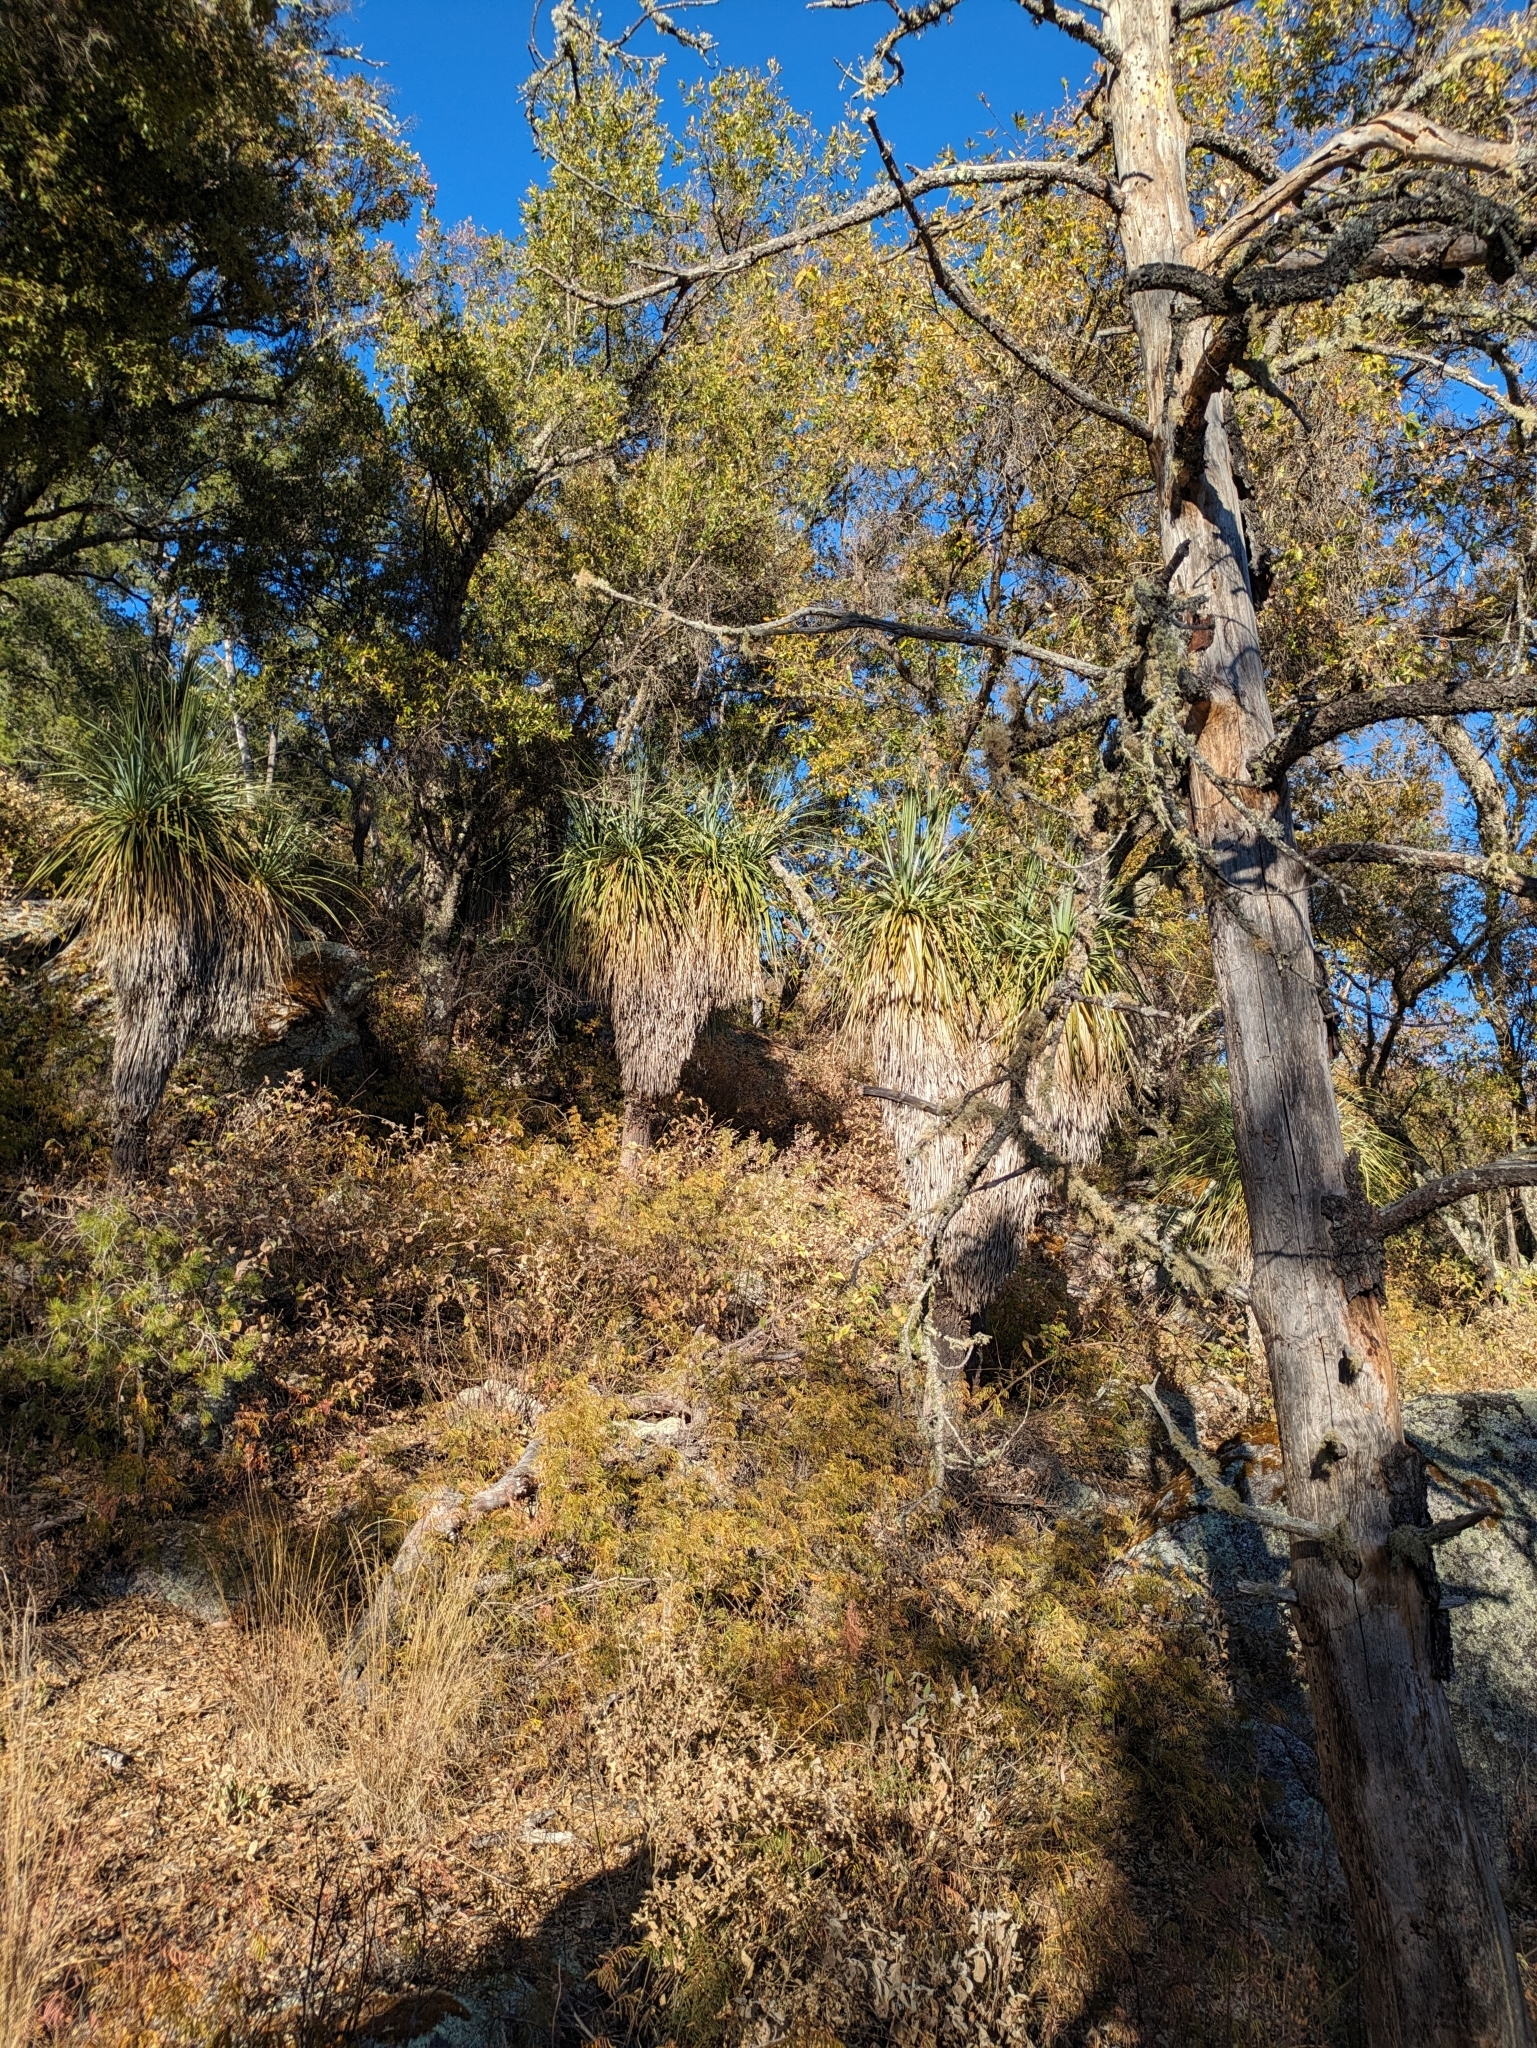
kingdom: Plantae
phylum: Tracheophyta
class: Liliopsida
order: Asparagales
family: Asparagaceae
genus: Nolina
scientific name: Nolina beldingii
